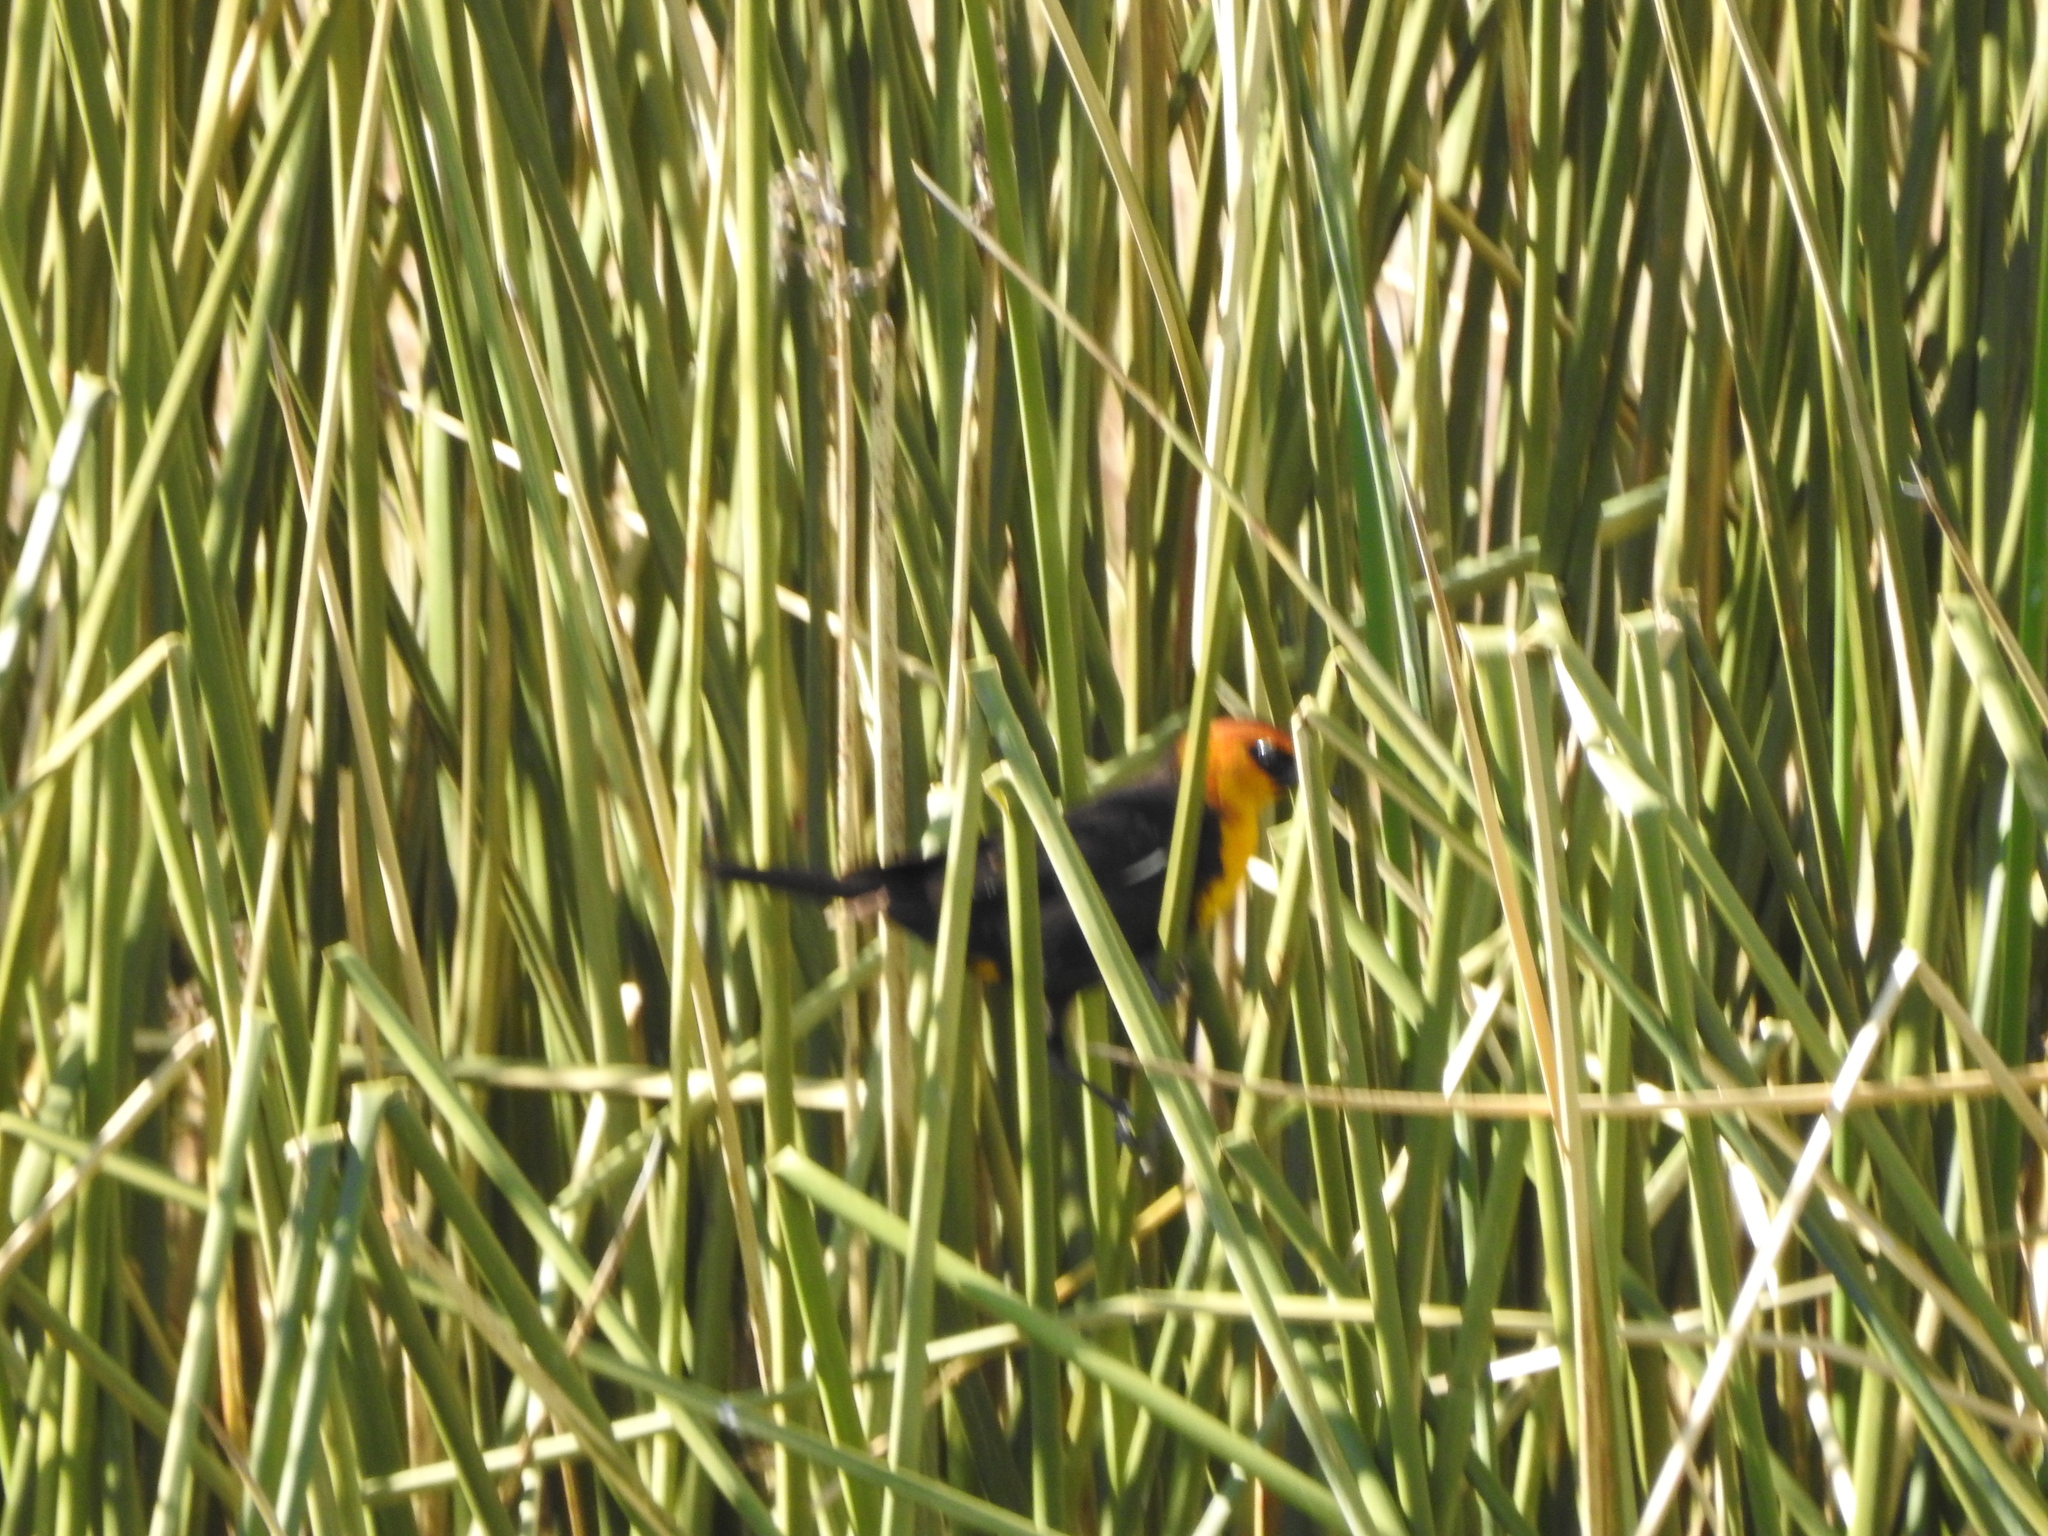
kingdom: Animalia
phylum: Chordata
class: Aves
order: Passeriformes
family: Icteridae
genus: Xanthocephalus
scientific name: Xanthocephalus xanthocephalus
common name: Yellow-headed blackbird
